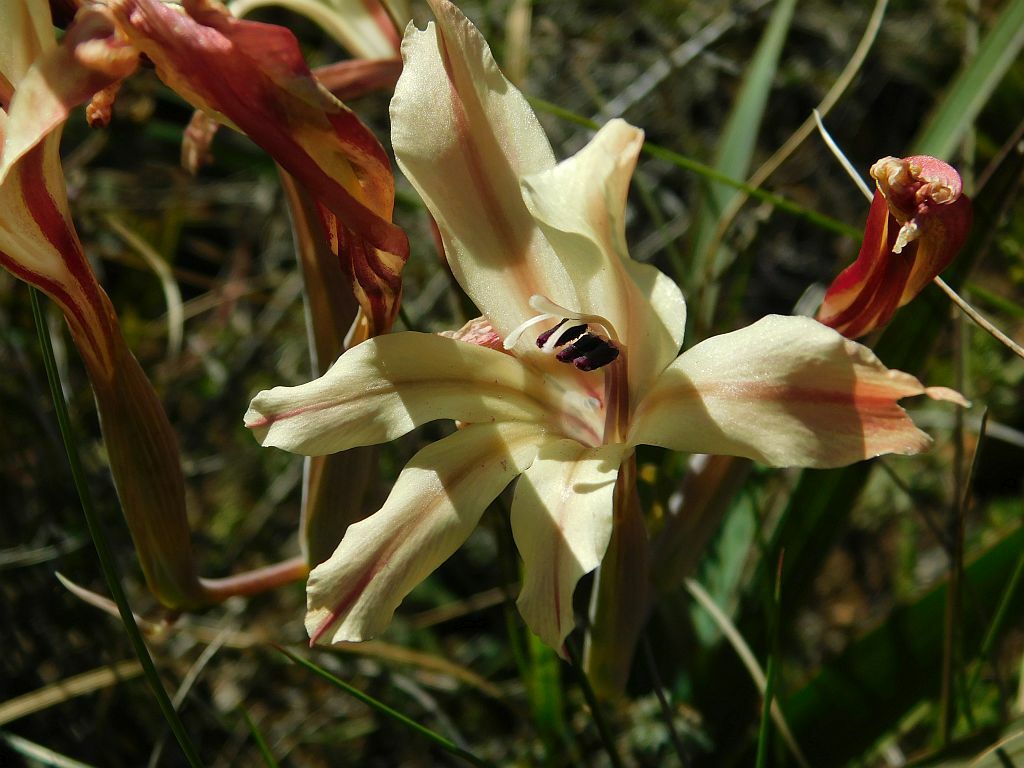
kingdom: Plantae
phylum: Tracheophyta
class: Liliopsida
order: Asparagales
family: Iridaceae
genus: Gladiolus
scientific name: Gladiolus floribundus
